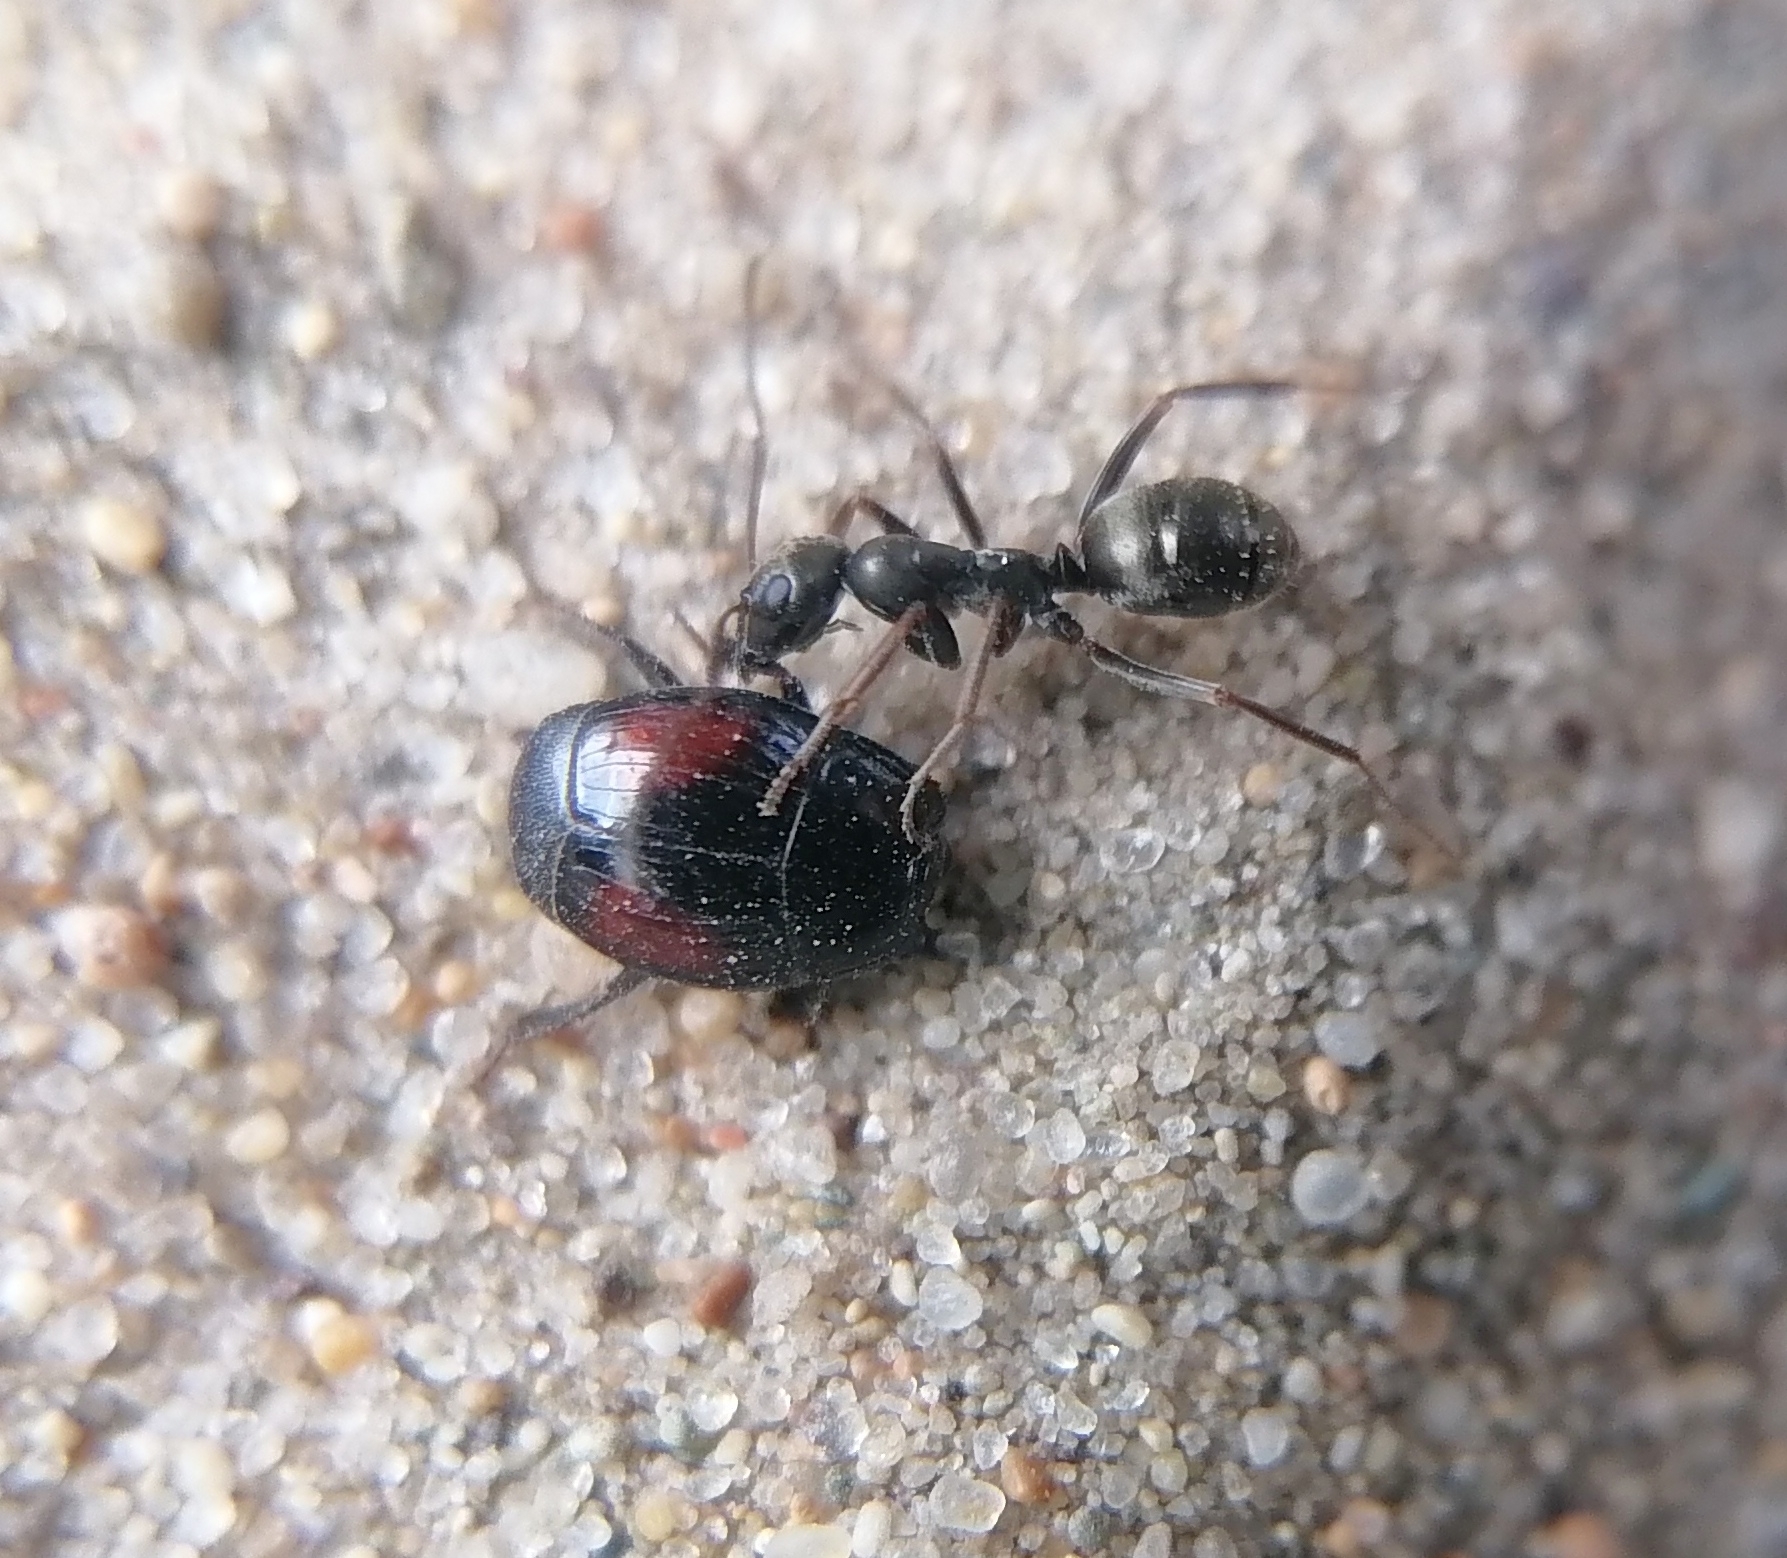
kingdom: Animalia
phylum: Arthropoda
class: Insecta
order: Coleoptera
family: Histeridae
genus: Margarinotus
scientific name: Margarinotus purpurascens
